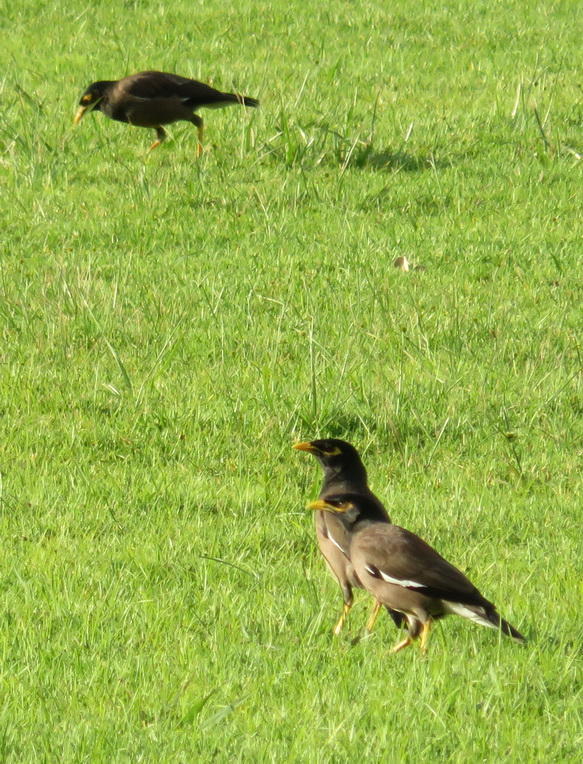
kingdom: Animalia
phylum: Chordata
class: Aves
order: Passeriformes
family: Sturnidae
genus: Acridotheres
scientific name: Acridotheres tristis
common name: Common myna
